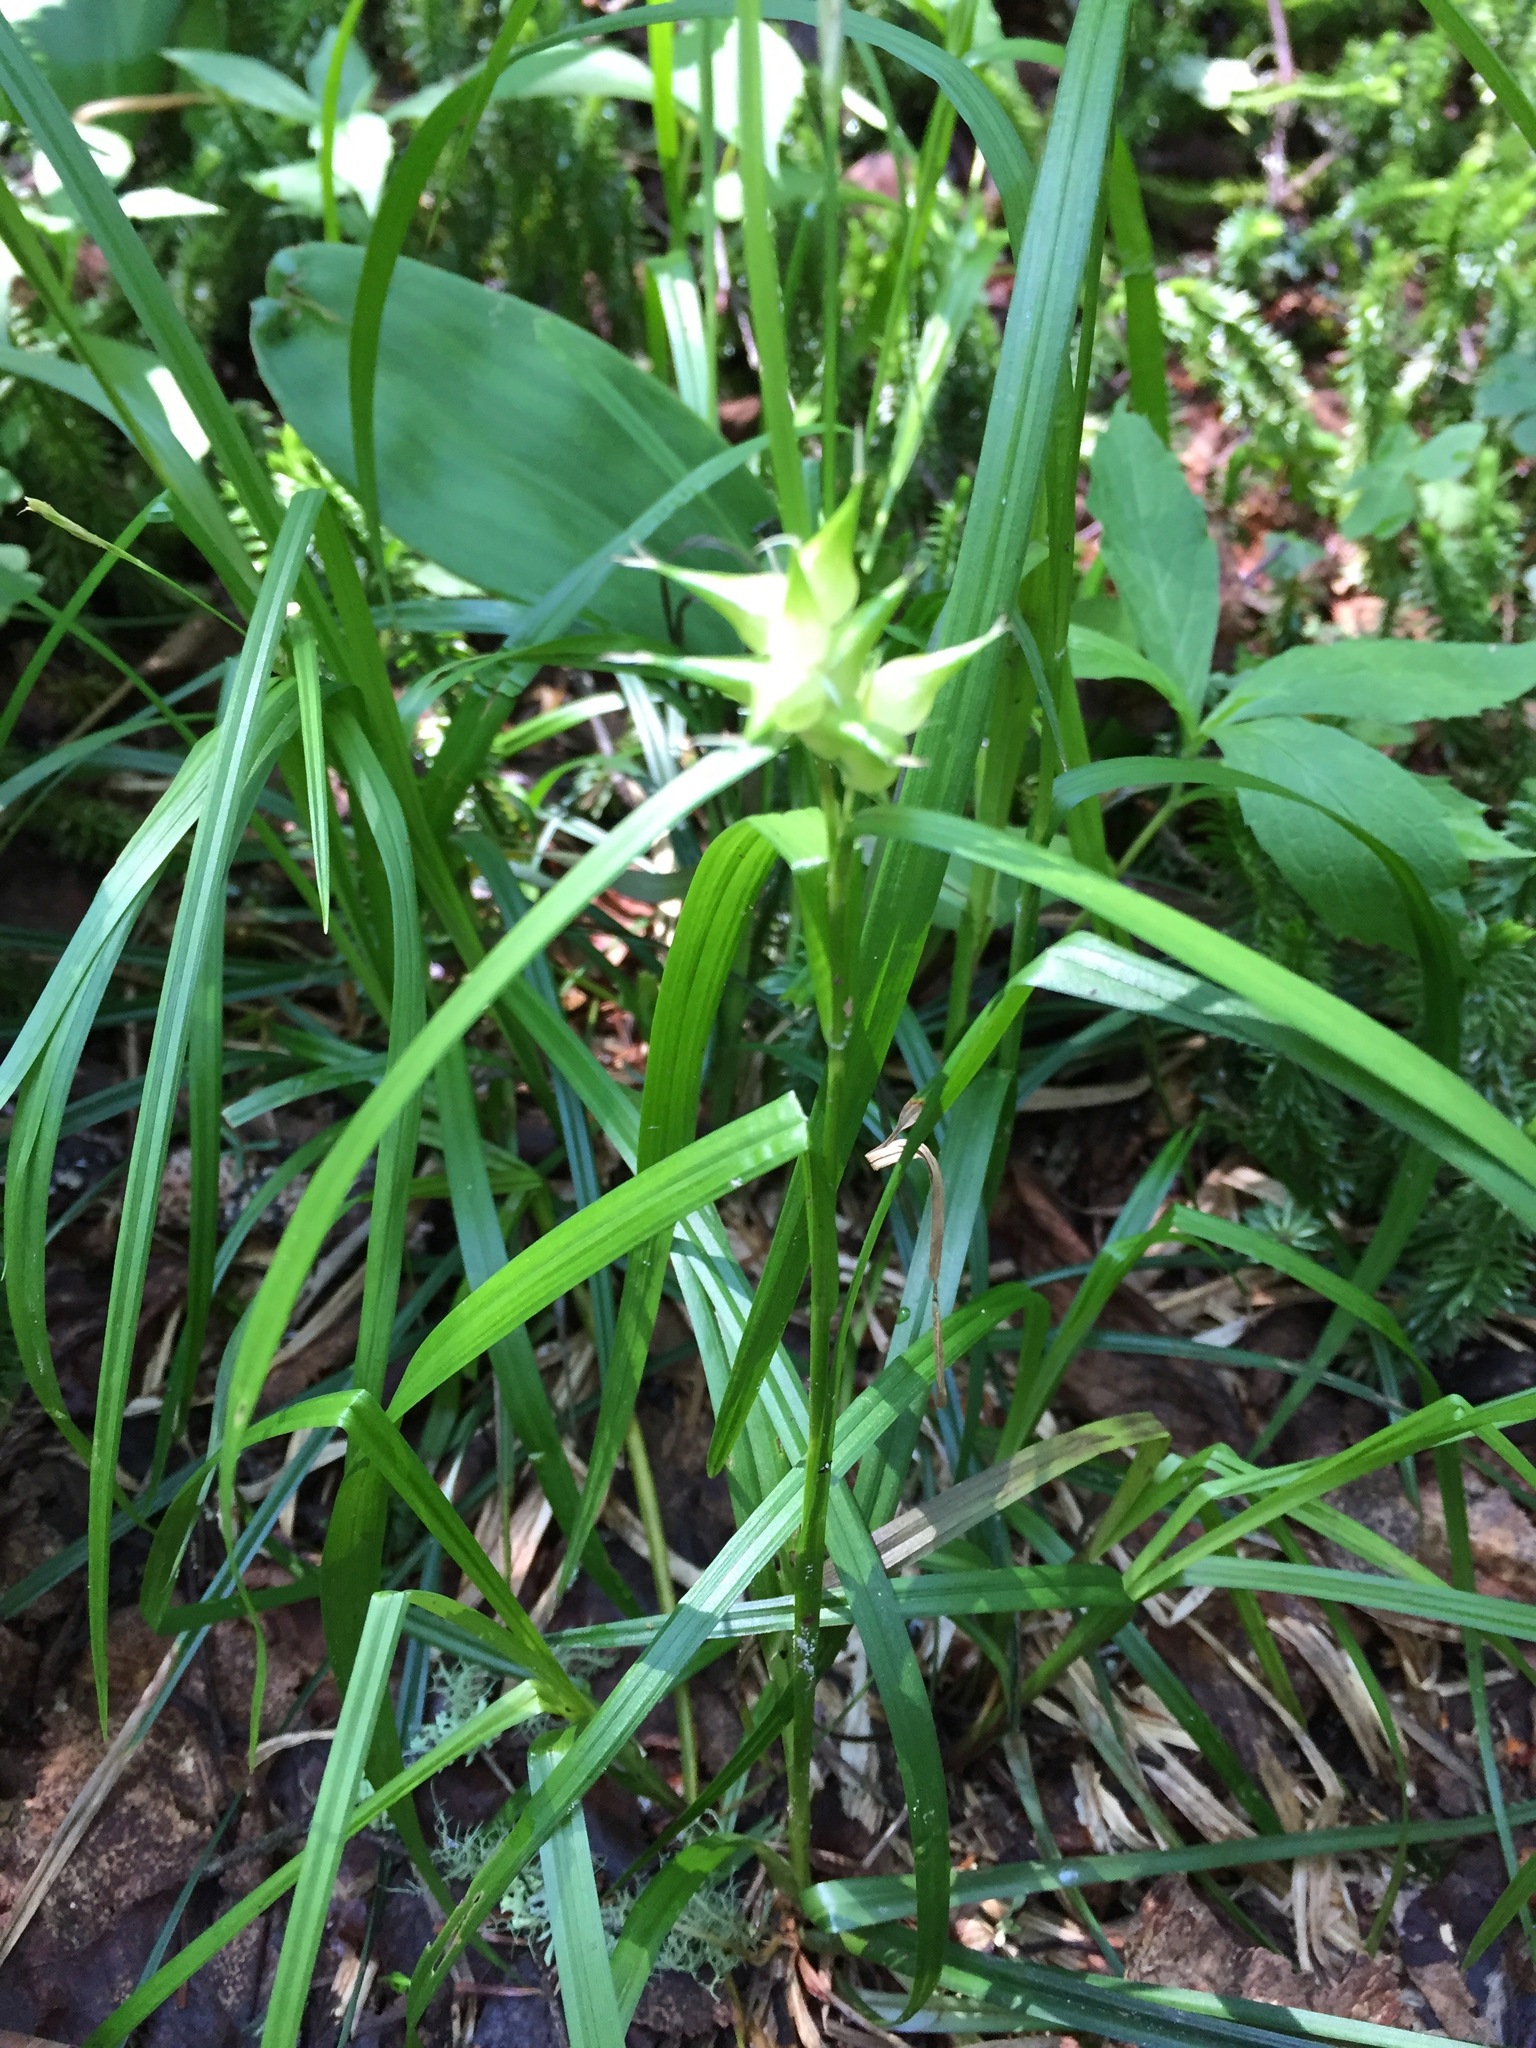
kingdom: Plantae
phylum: Tracheophyta
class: Liliopsida
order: Poales
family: Cyperaceae
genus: Carex
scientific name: Carex intumescens
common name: Greater bladder sedge
